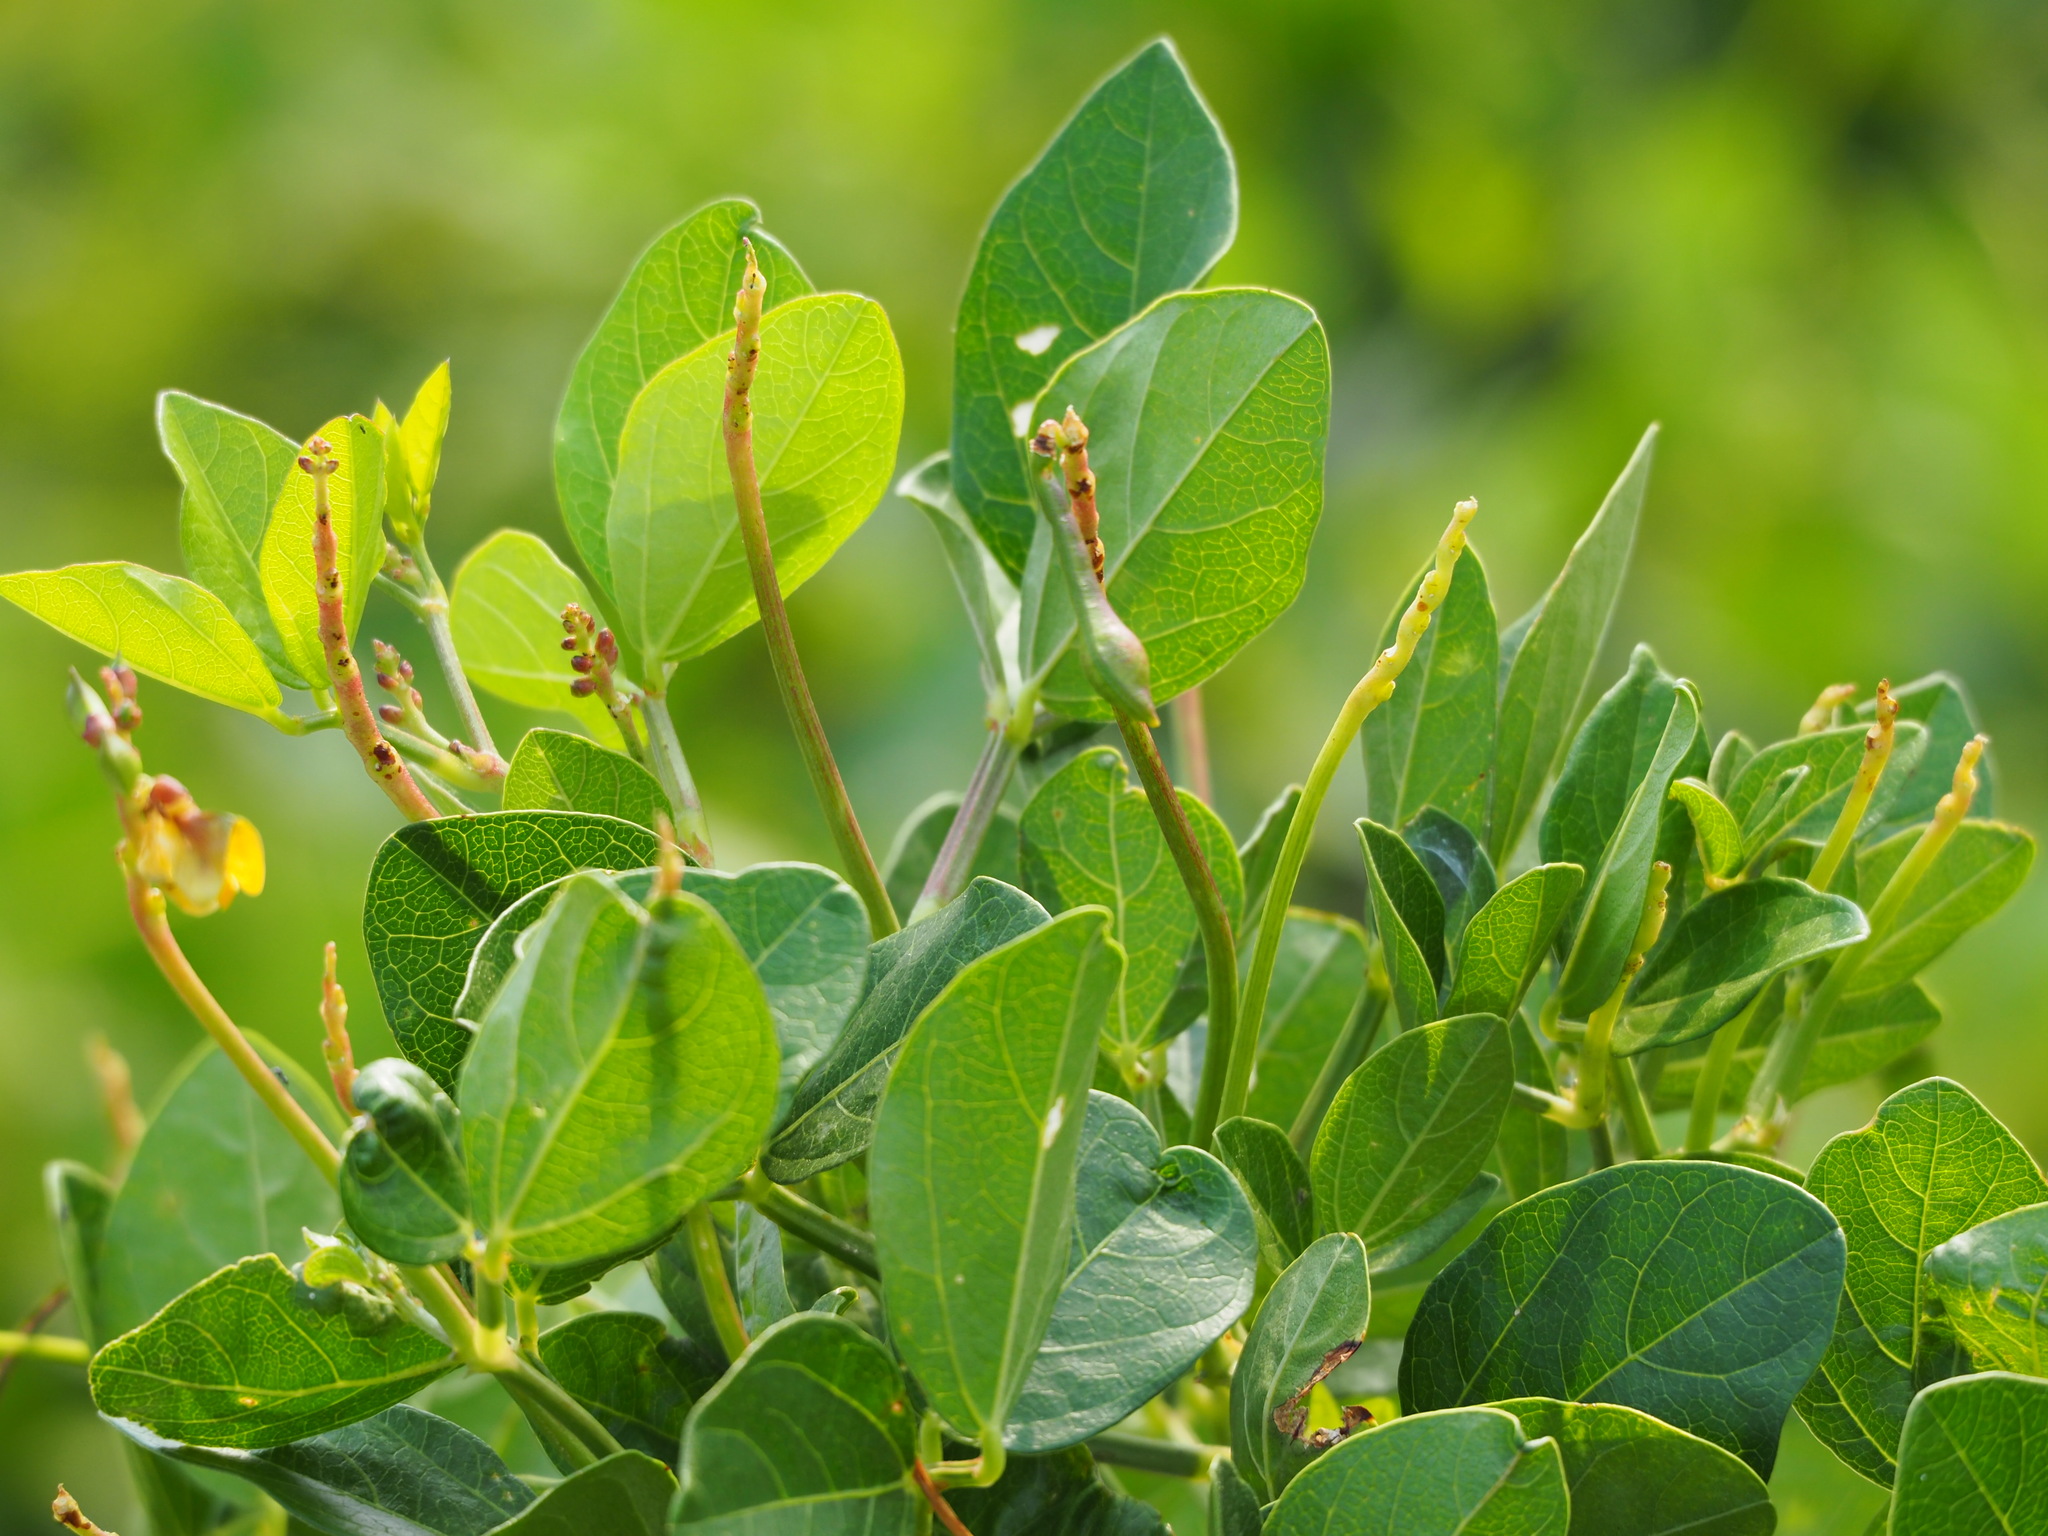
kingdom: Plantae
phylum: Tracheophyta
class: Magnoliopsida
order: Fabales
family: Fabaceae
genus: Vigna
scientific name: Vigna marina
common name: Dune-bean
